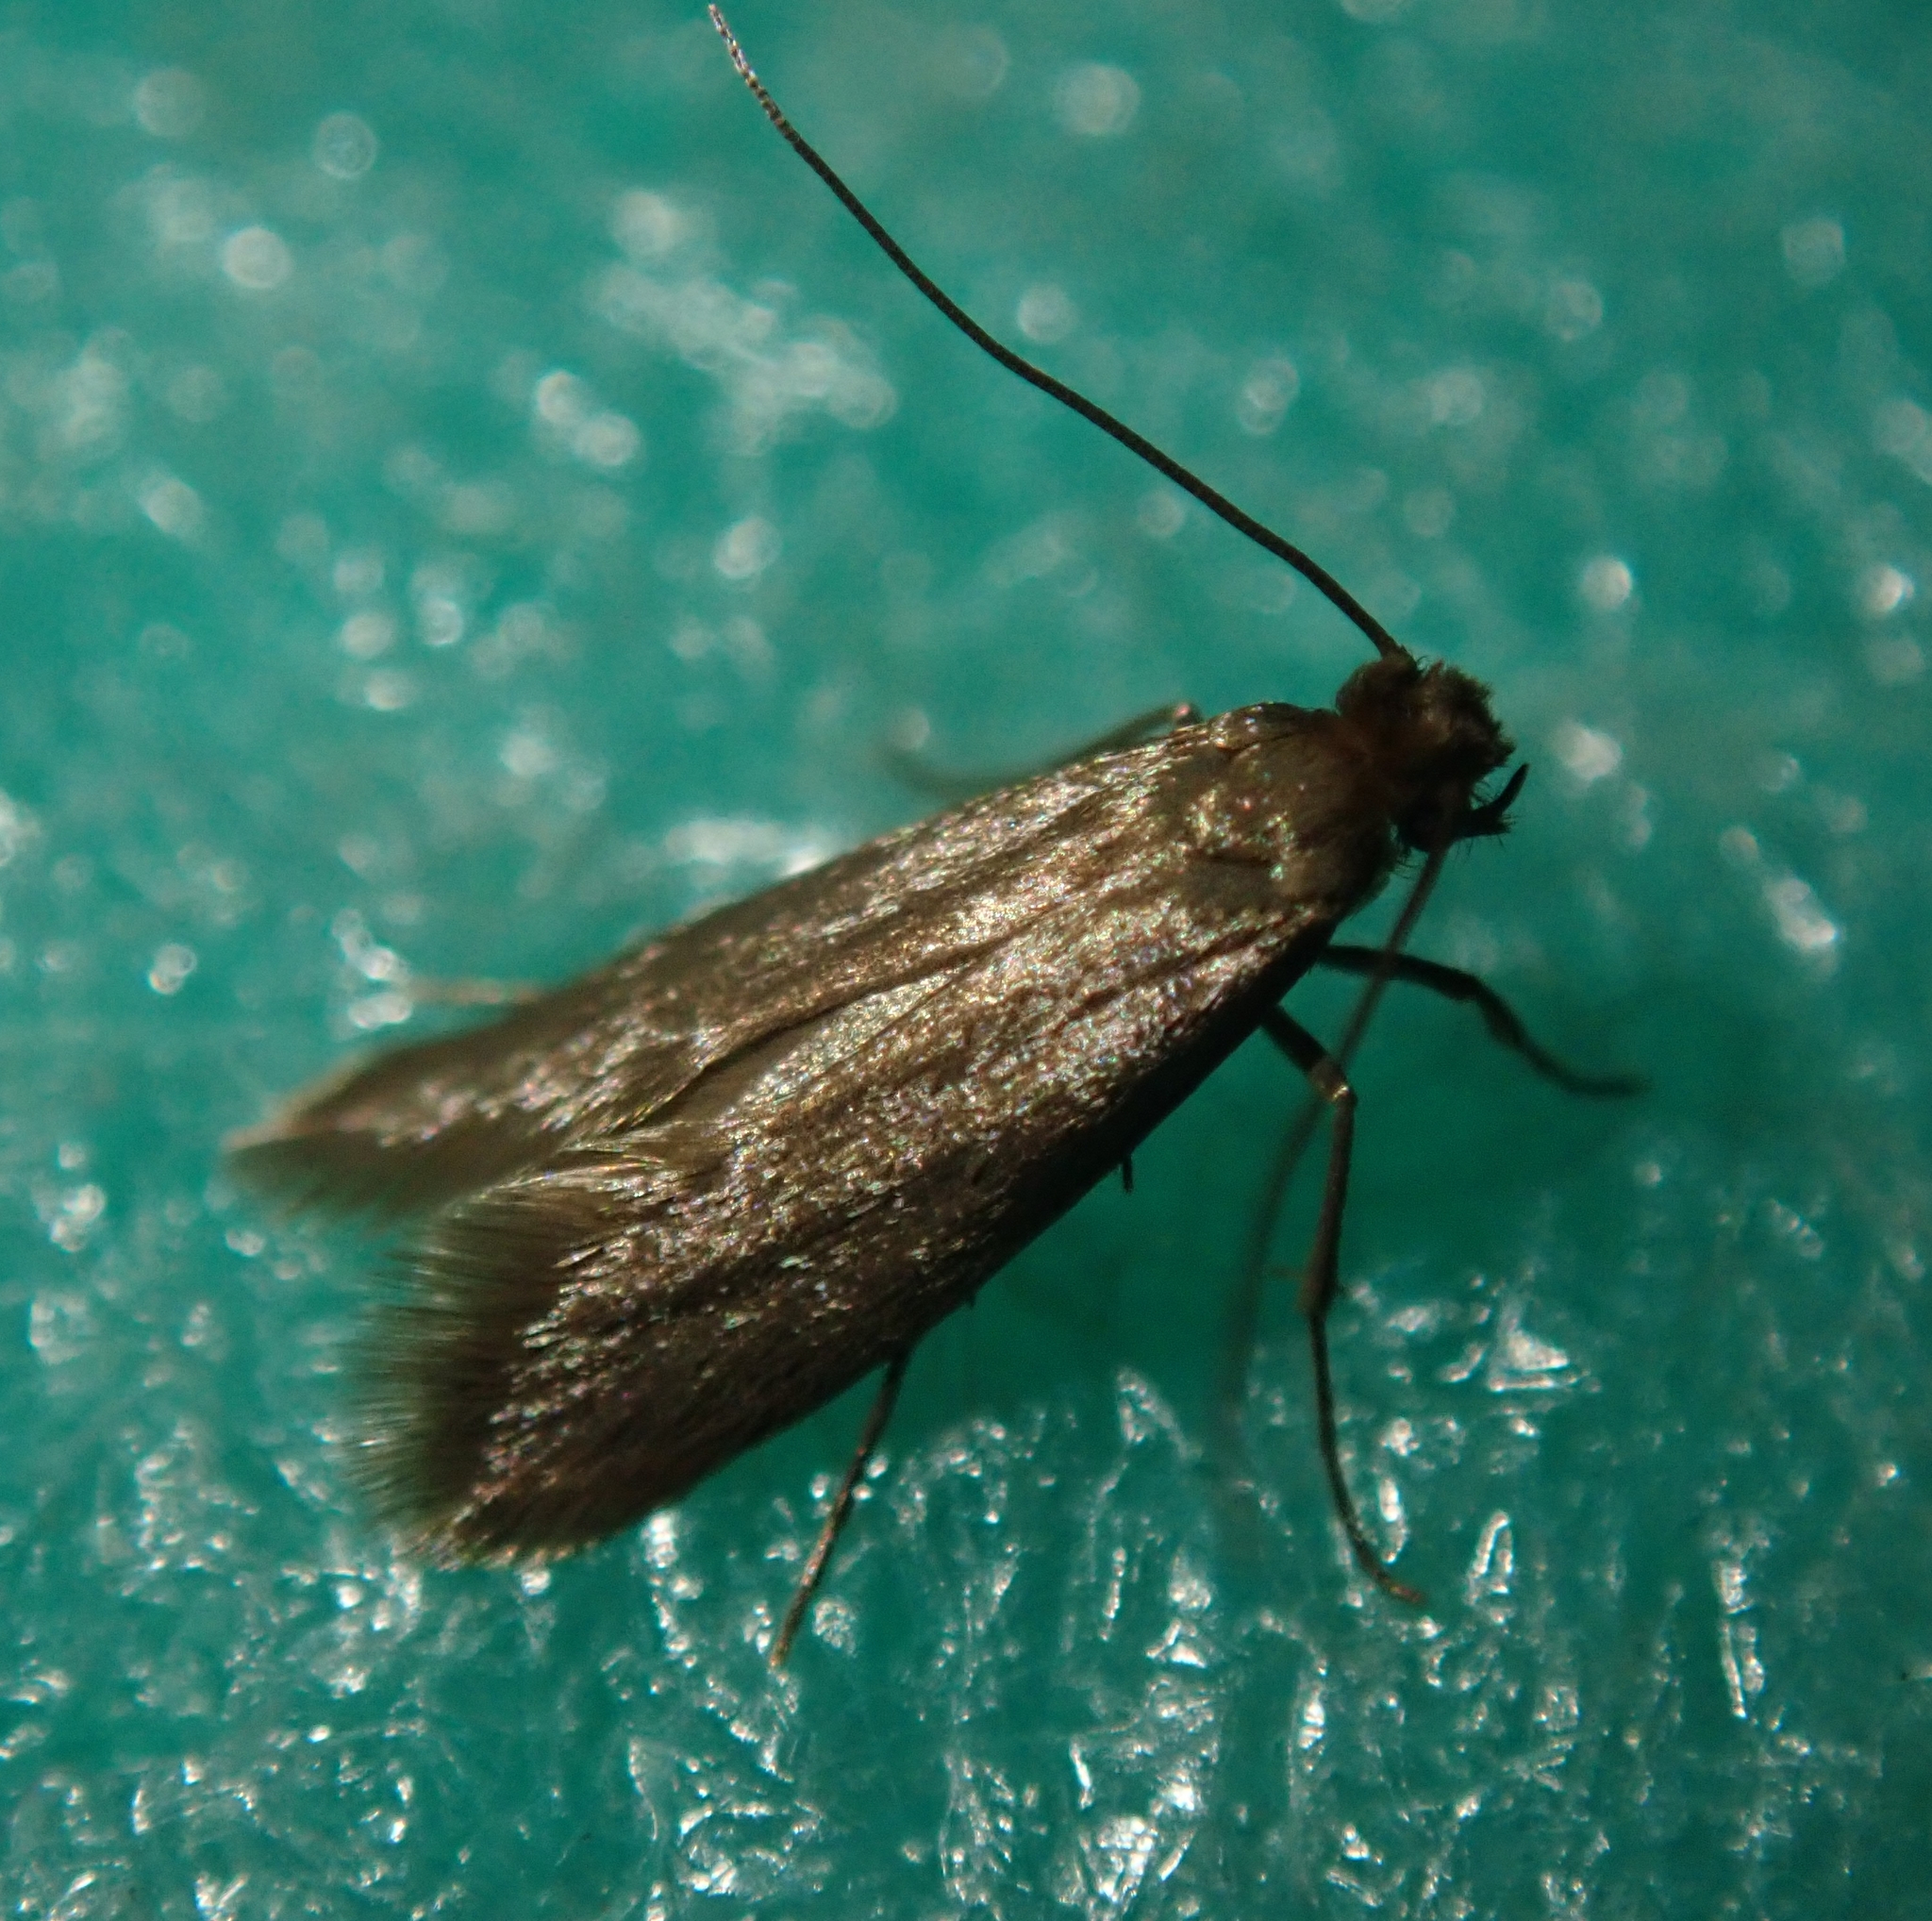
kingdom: Animalia
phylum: Arthropoda
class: Insecta
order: Lepidoptera
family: Tineidae
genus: Tineola
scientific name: Tineola bisselliella
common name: Webbing clothes moth
